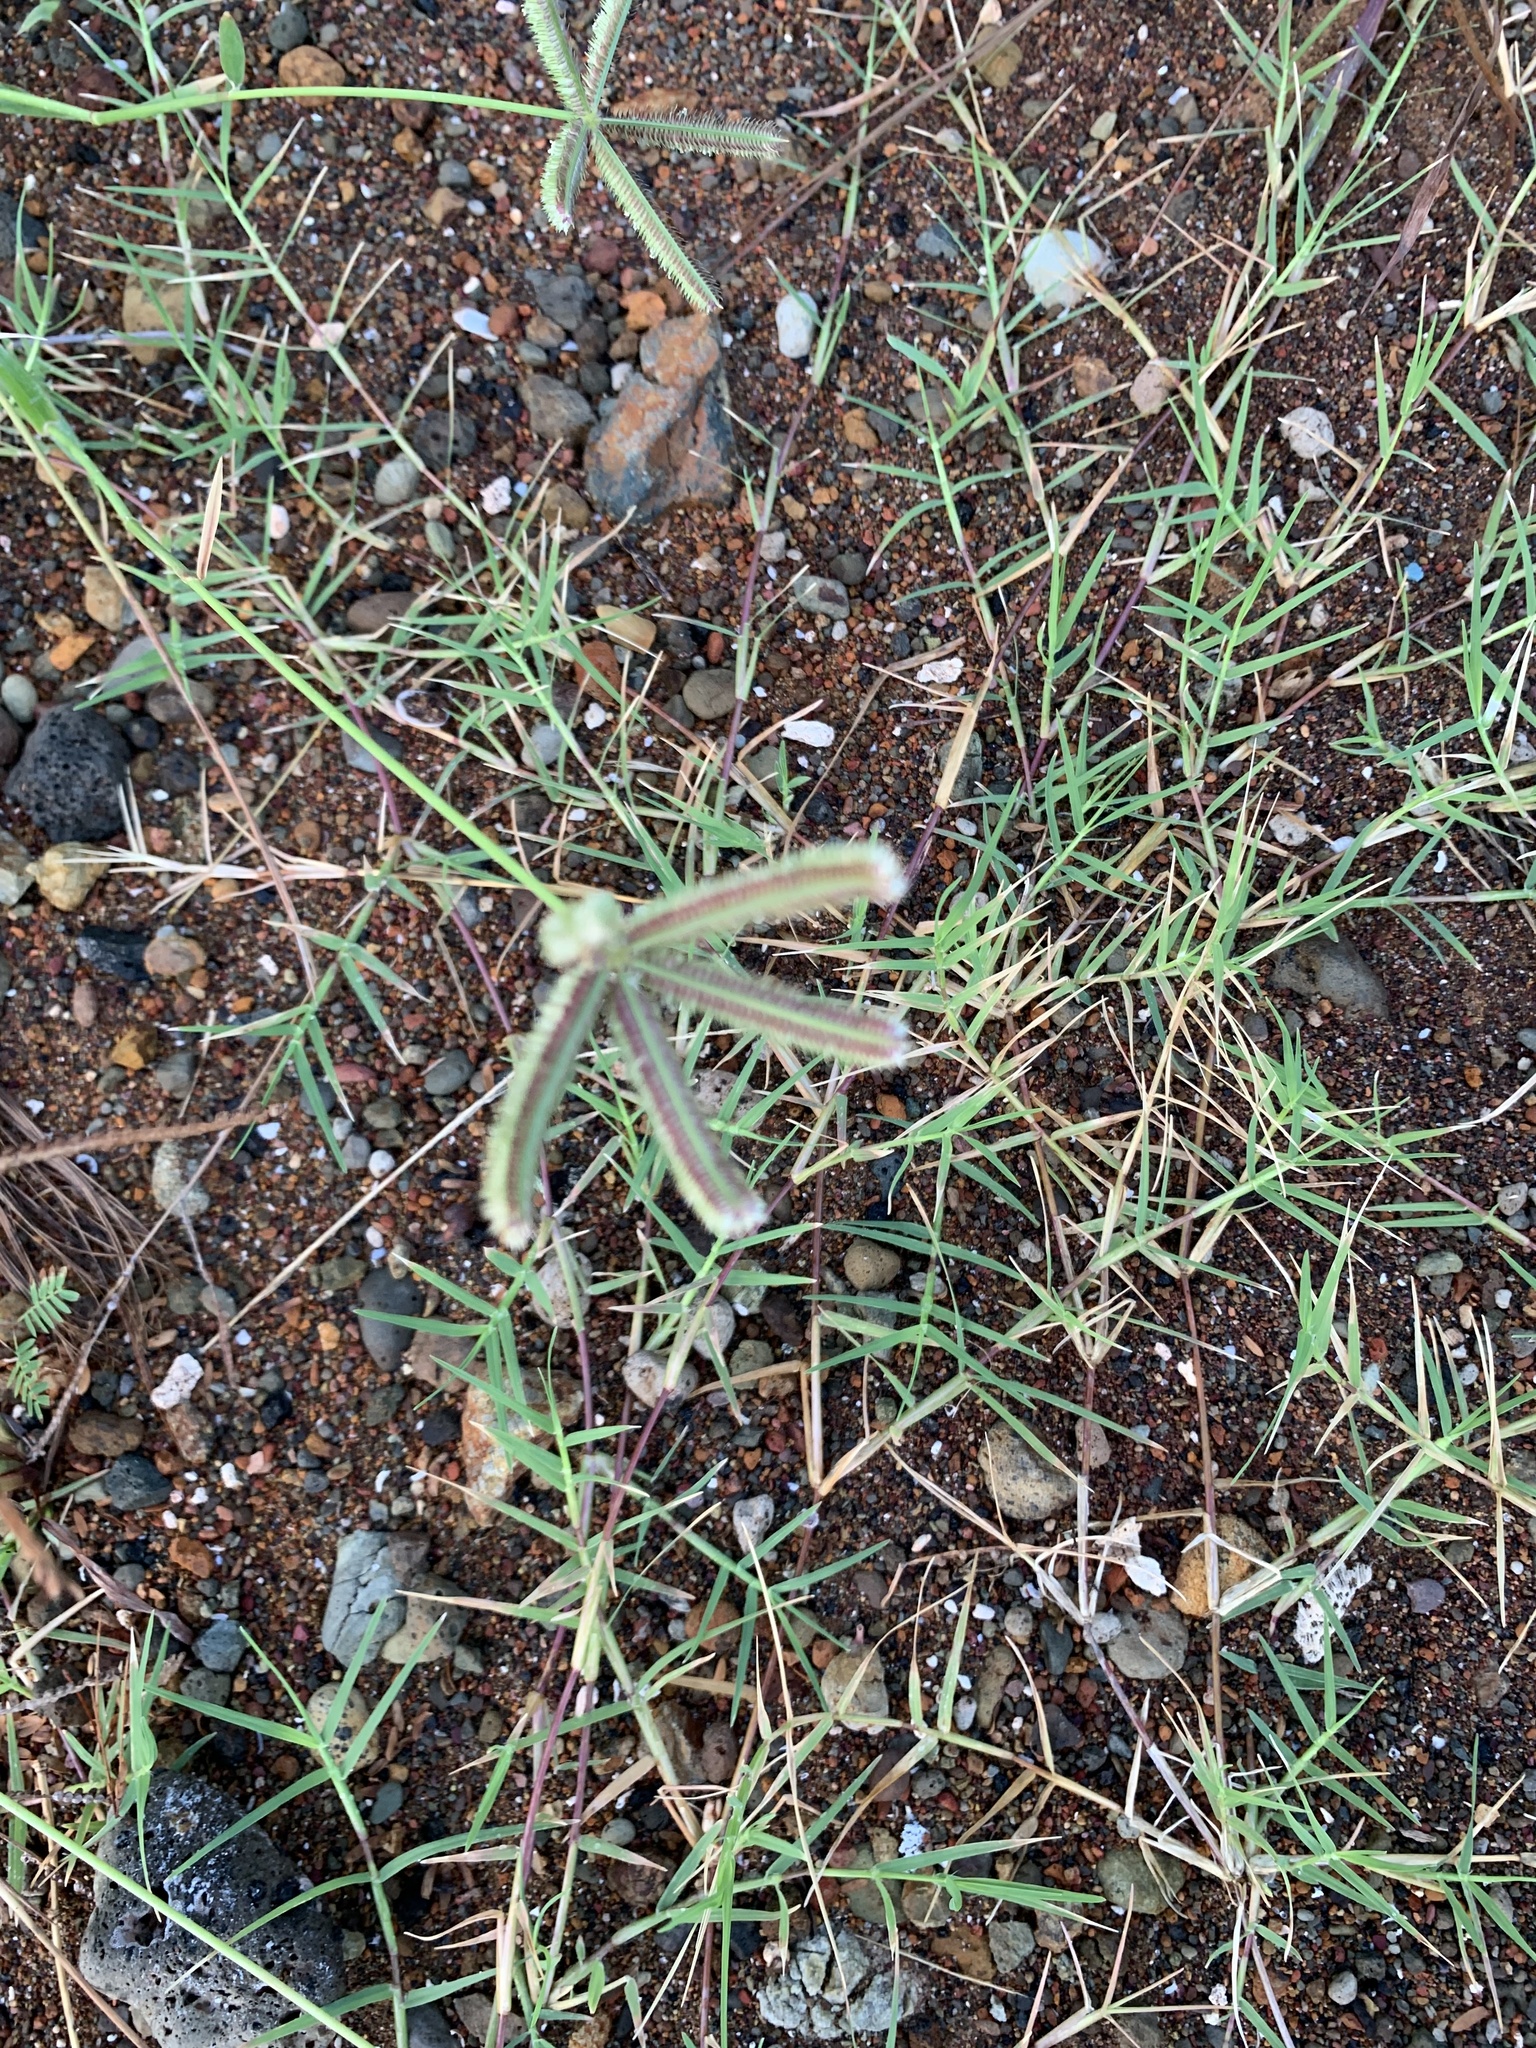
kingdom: Plantae
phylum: Tracheophyta
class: Liliopsida
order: Poales
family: Poaceae
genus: Dactyloctenium
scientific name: Dactyloctenium aegyptium
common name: Egyptian grass
